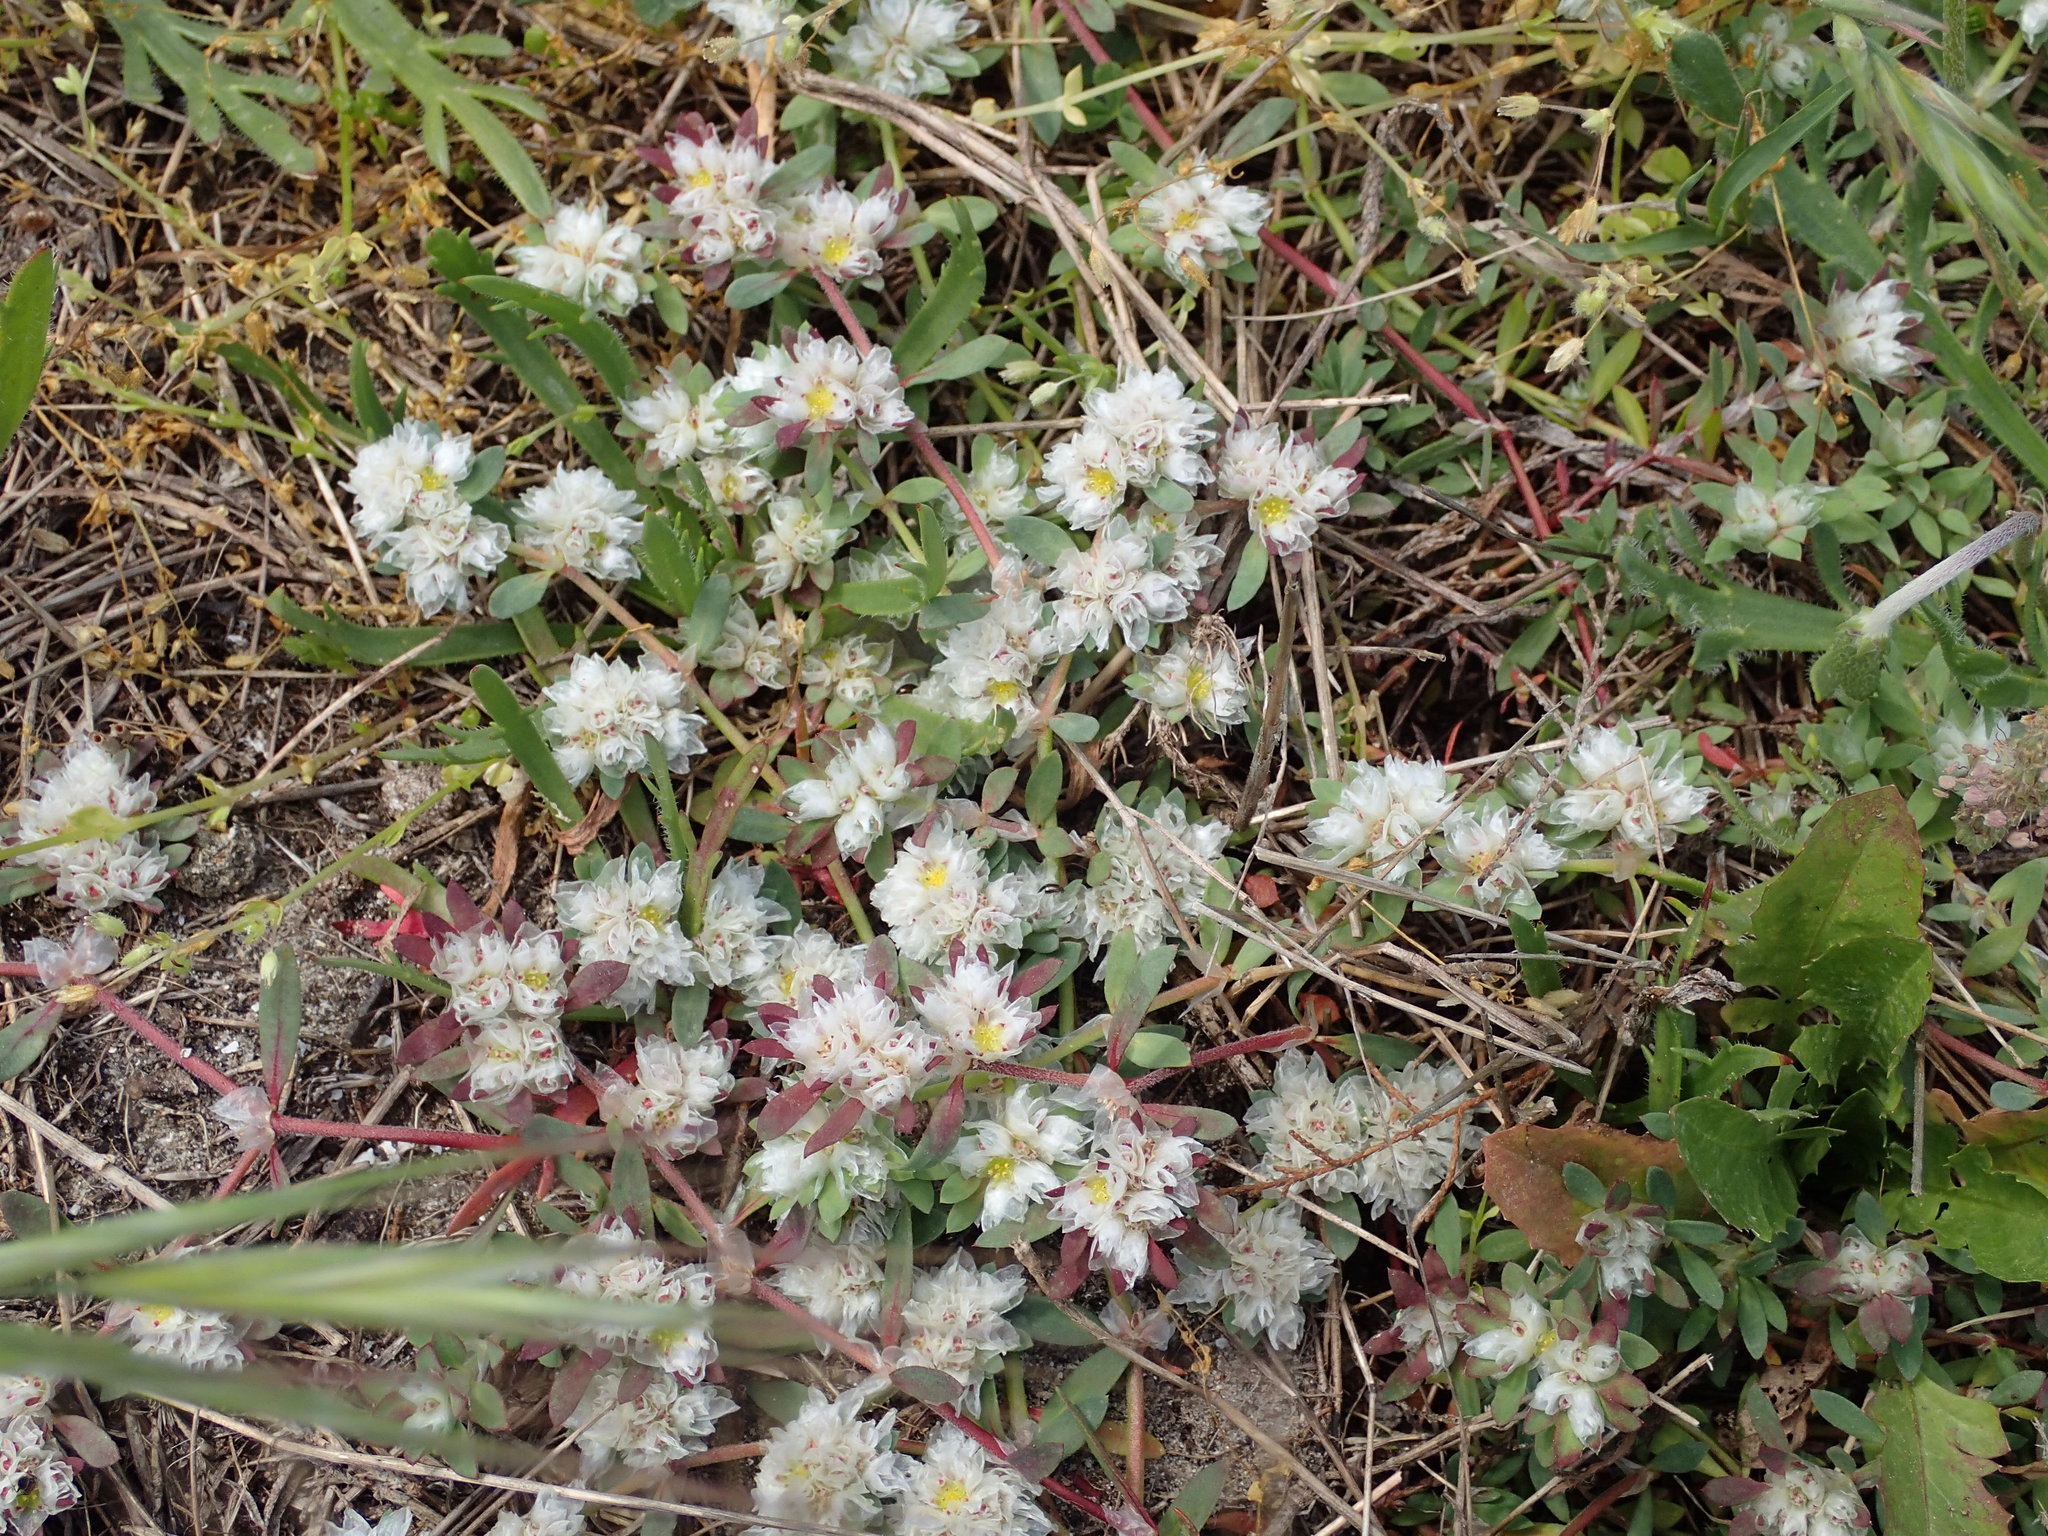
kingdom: Plantae
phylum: Tracheophyta
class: Magnoliopsida
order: Caryophyllales
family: Caryophyllaceae
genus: Paronychia
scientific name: Paronychia argentea
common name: Silver nailroot
